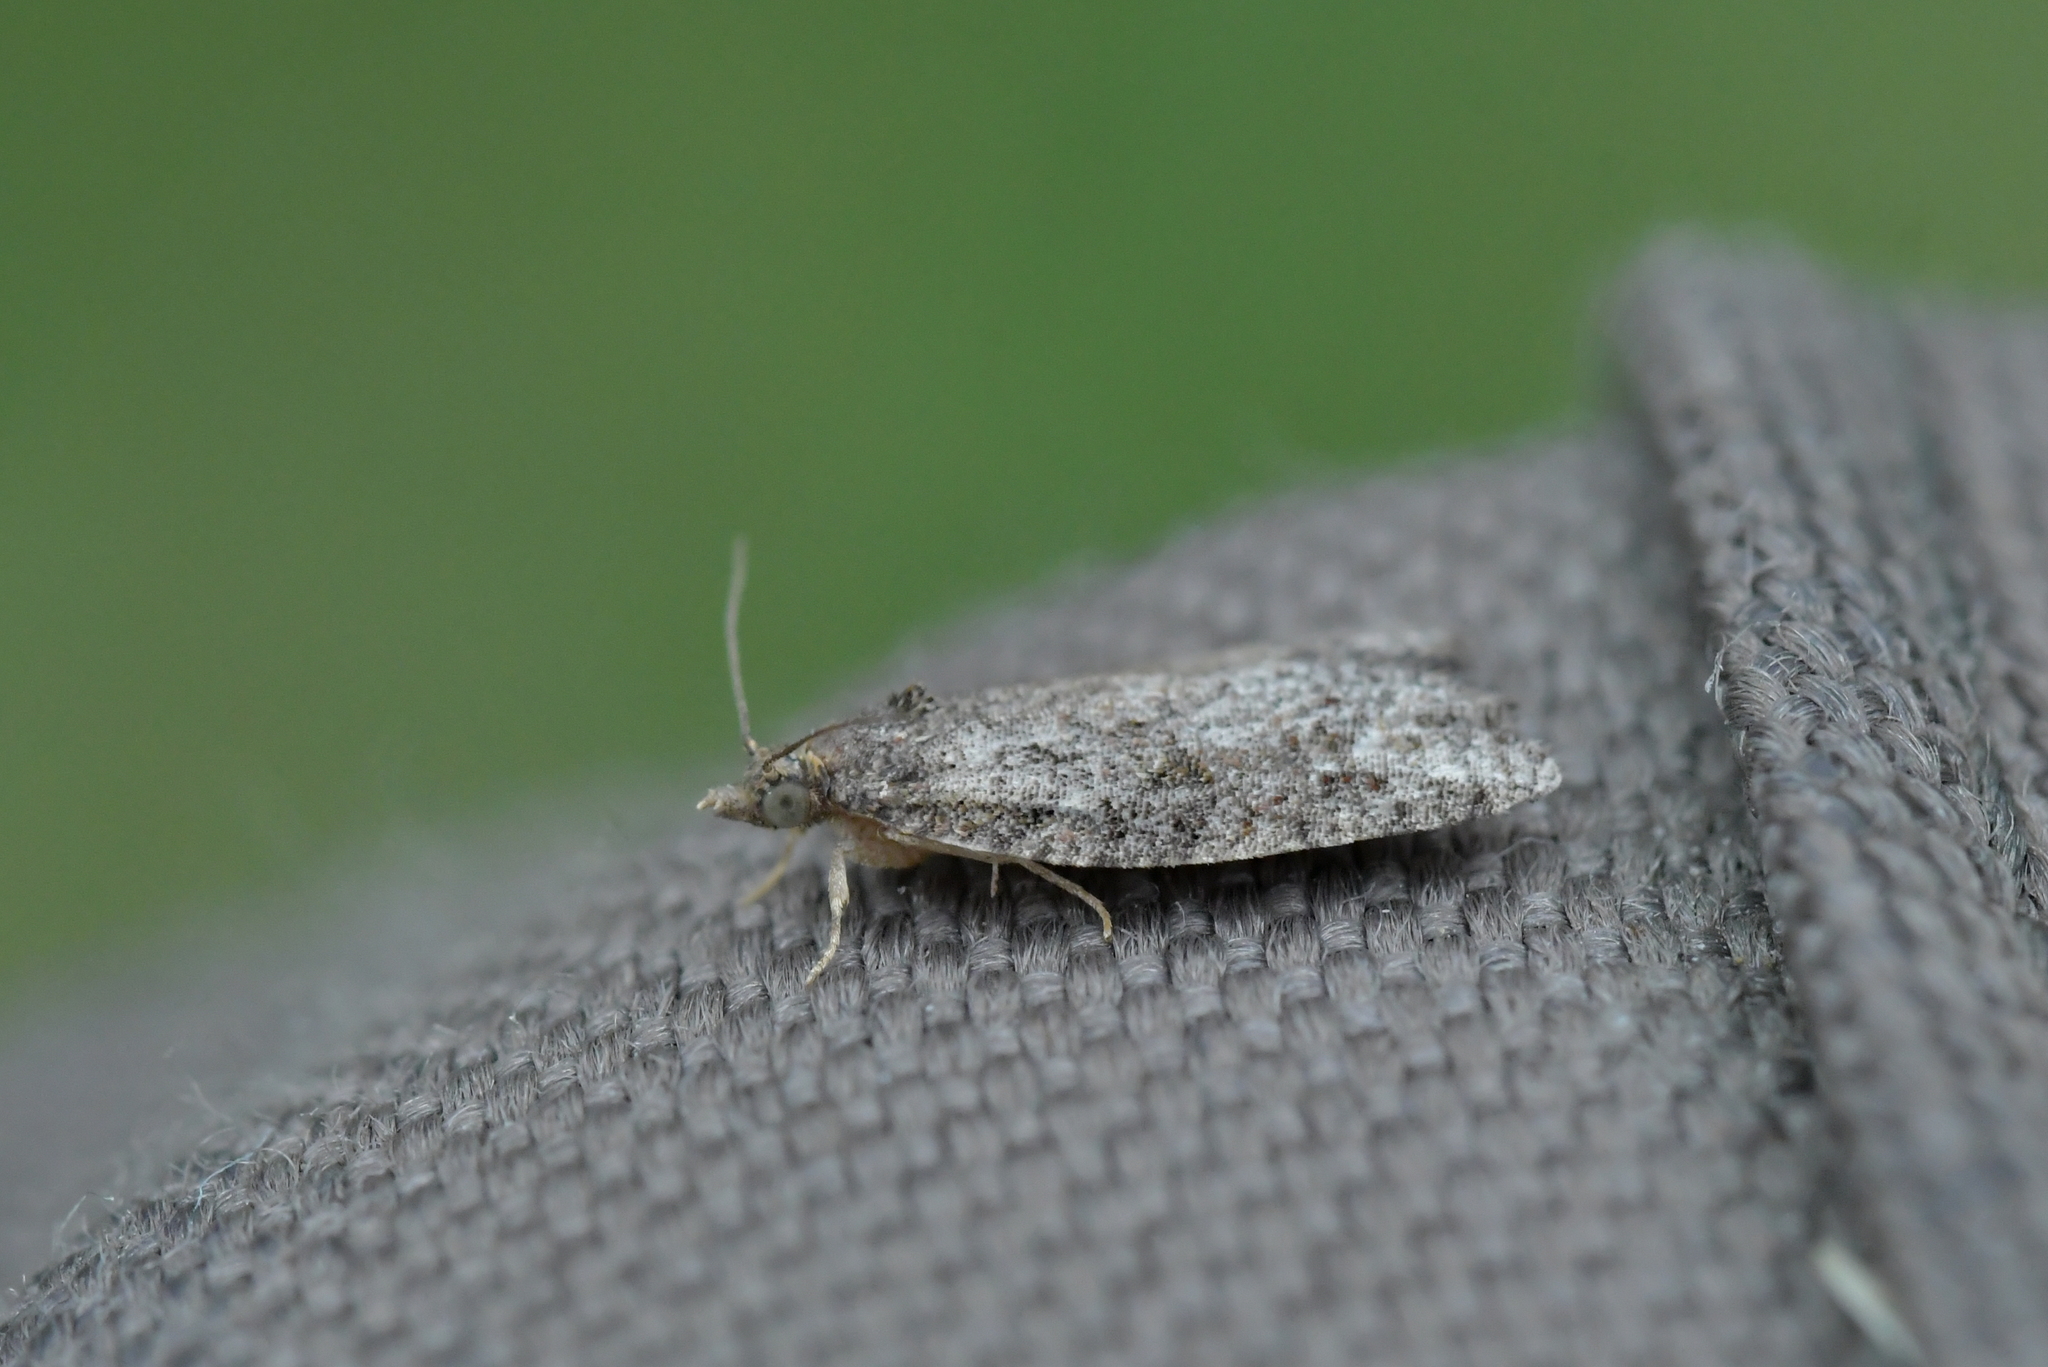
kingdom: Animalia
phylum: Arthropoda
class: Insecta
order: Lepidoptera
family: Tortricidae
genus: Capua
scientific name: Capua intractana
